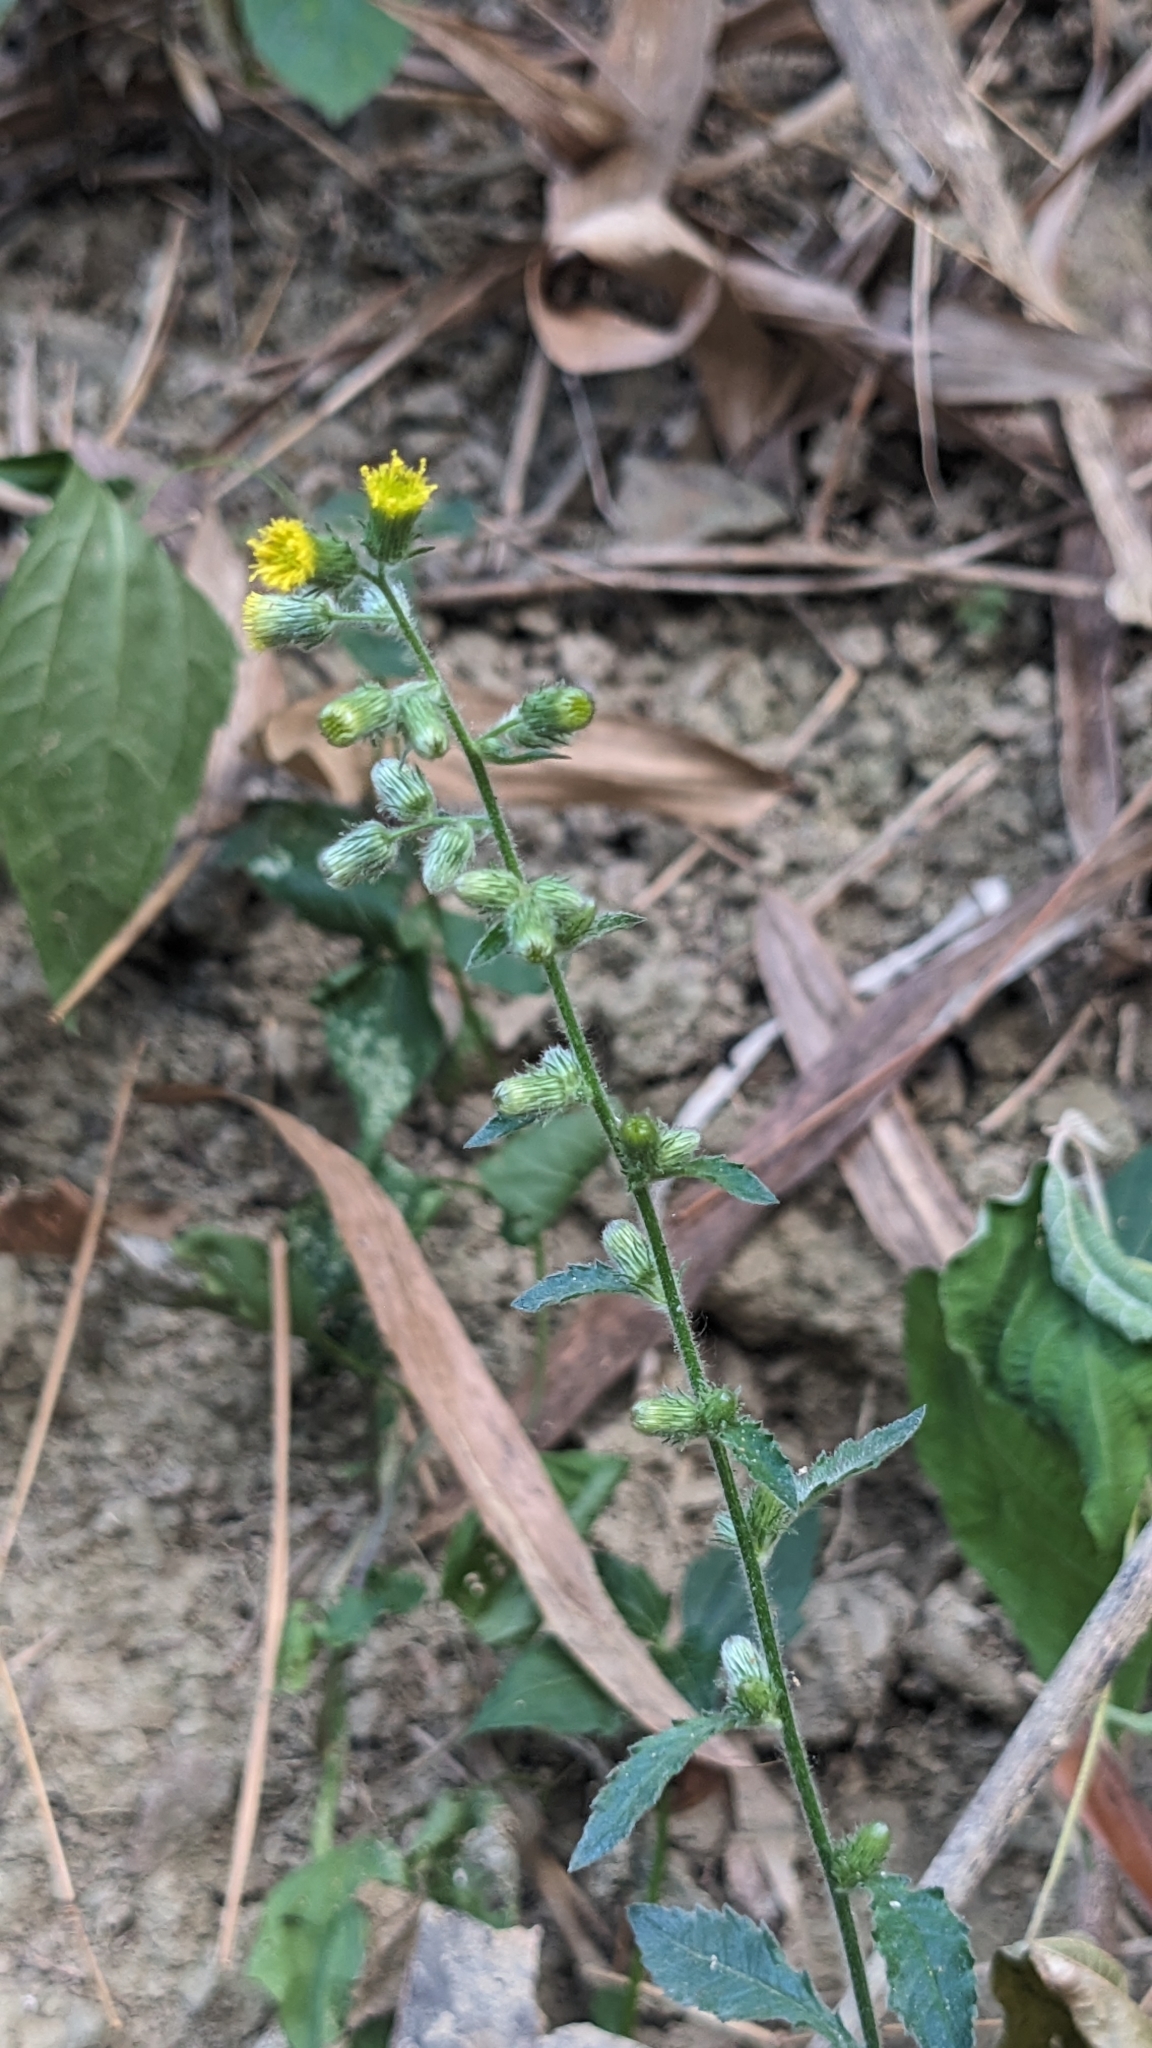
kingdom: Plantae
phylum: Tracheophyta
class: Magnoliopsida
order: Asterales
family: Asteraceae
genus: Blumea
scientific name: Blumea sinuata
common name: Cutleaf false oxtongue
